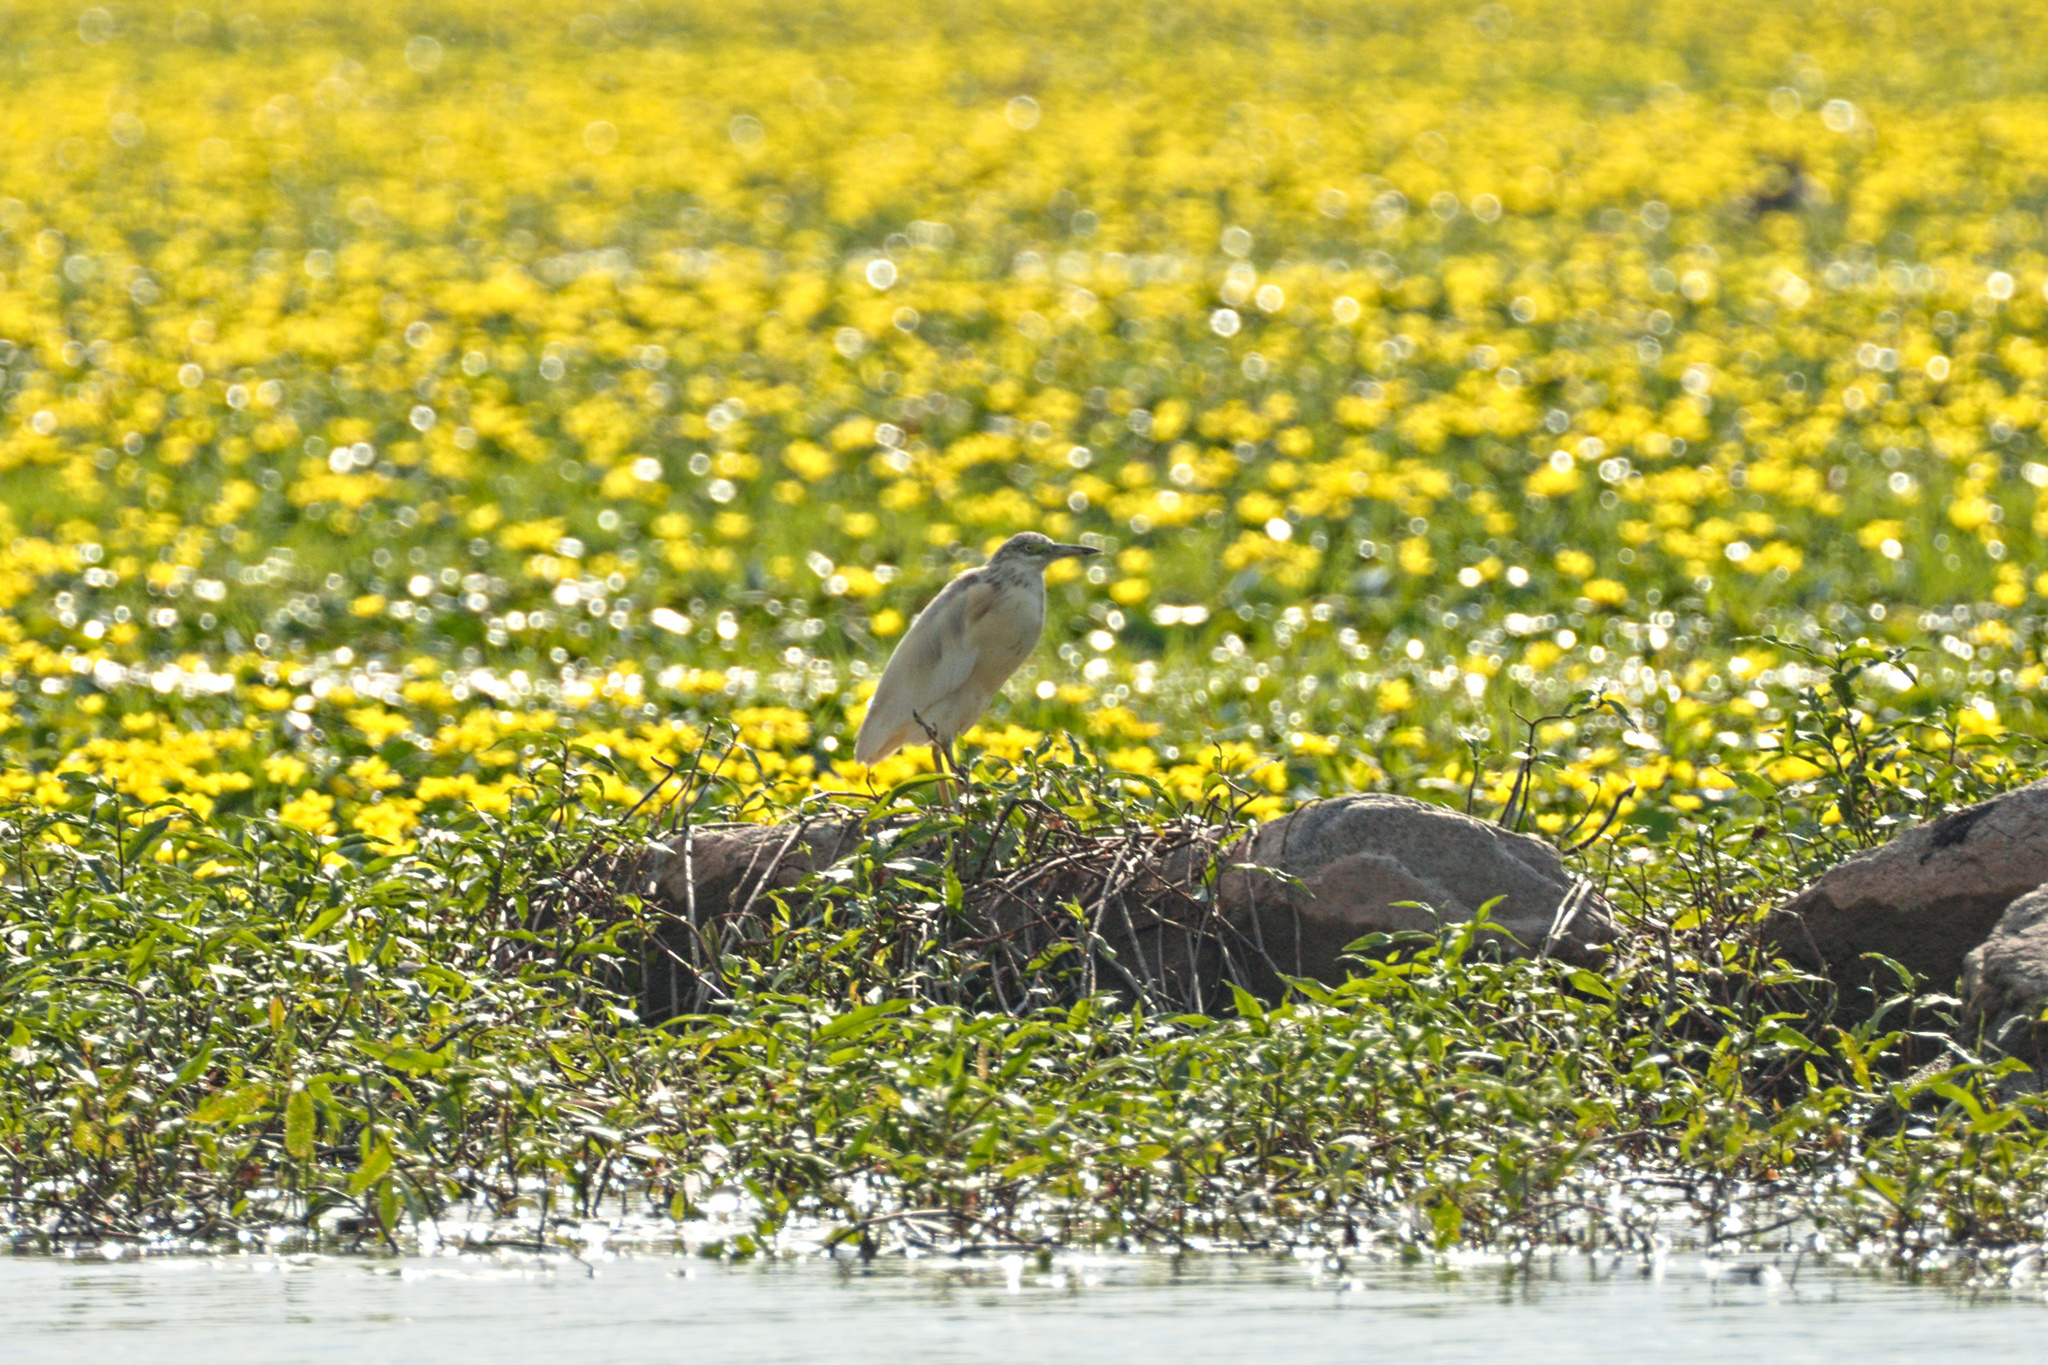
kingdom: Animalia
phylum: Chordata
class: Aves
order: Pelecaniformes
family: Ardeidae
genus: Ardeola
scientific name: Ardeola ralloides
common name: Squacco heron
